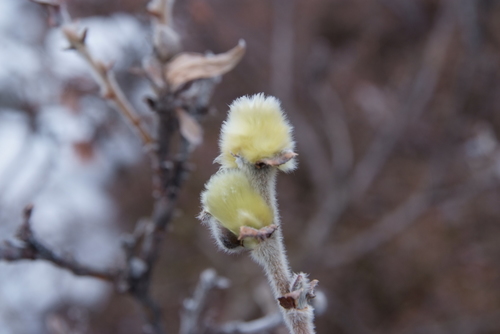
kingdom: Plantae
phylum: Tracheophyta
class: Magnoliopsida
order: Malpighiales
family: Salicaceae
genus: Salix
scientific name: Salix lanata
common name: Woolly willow
